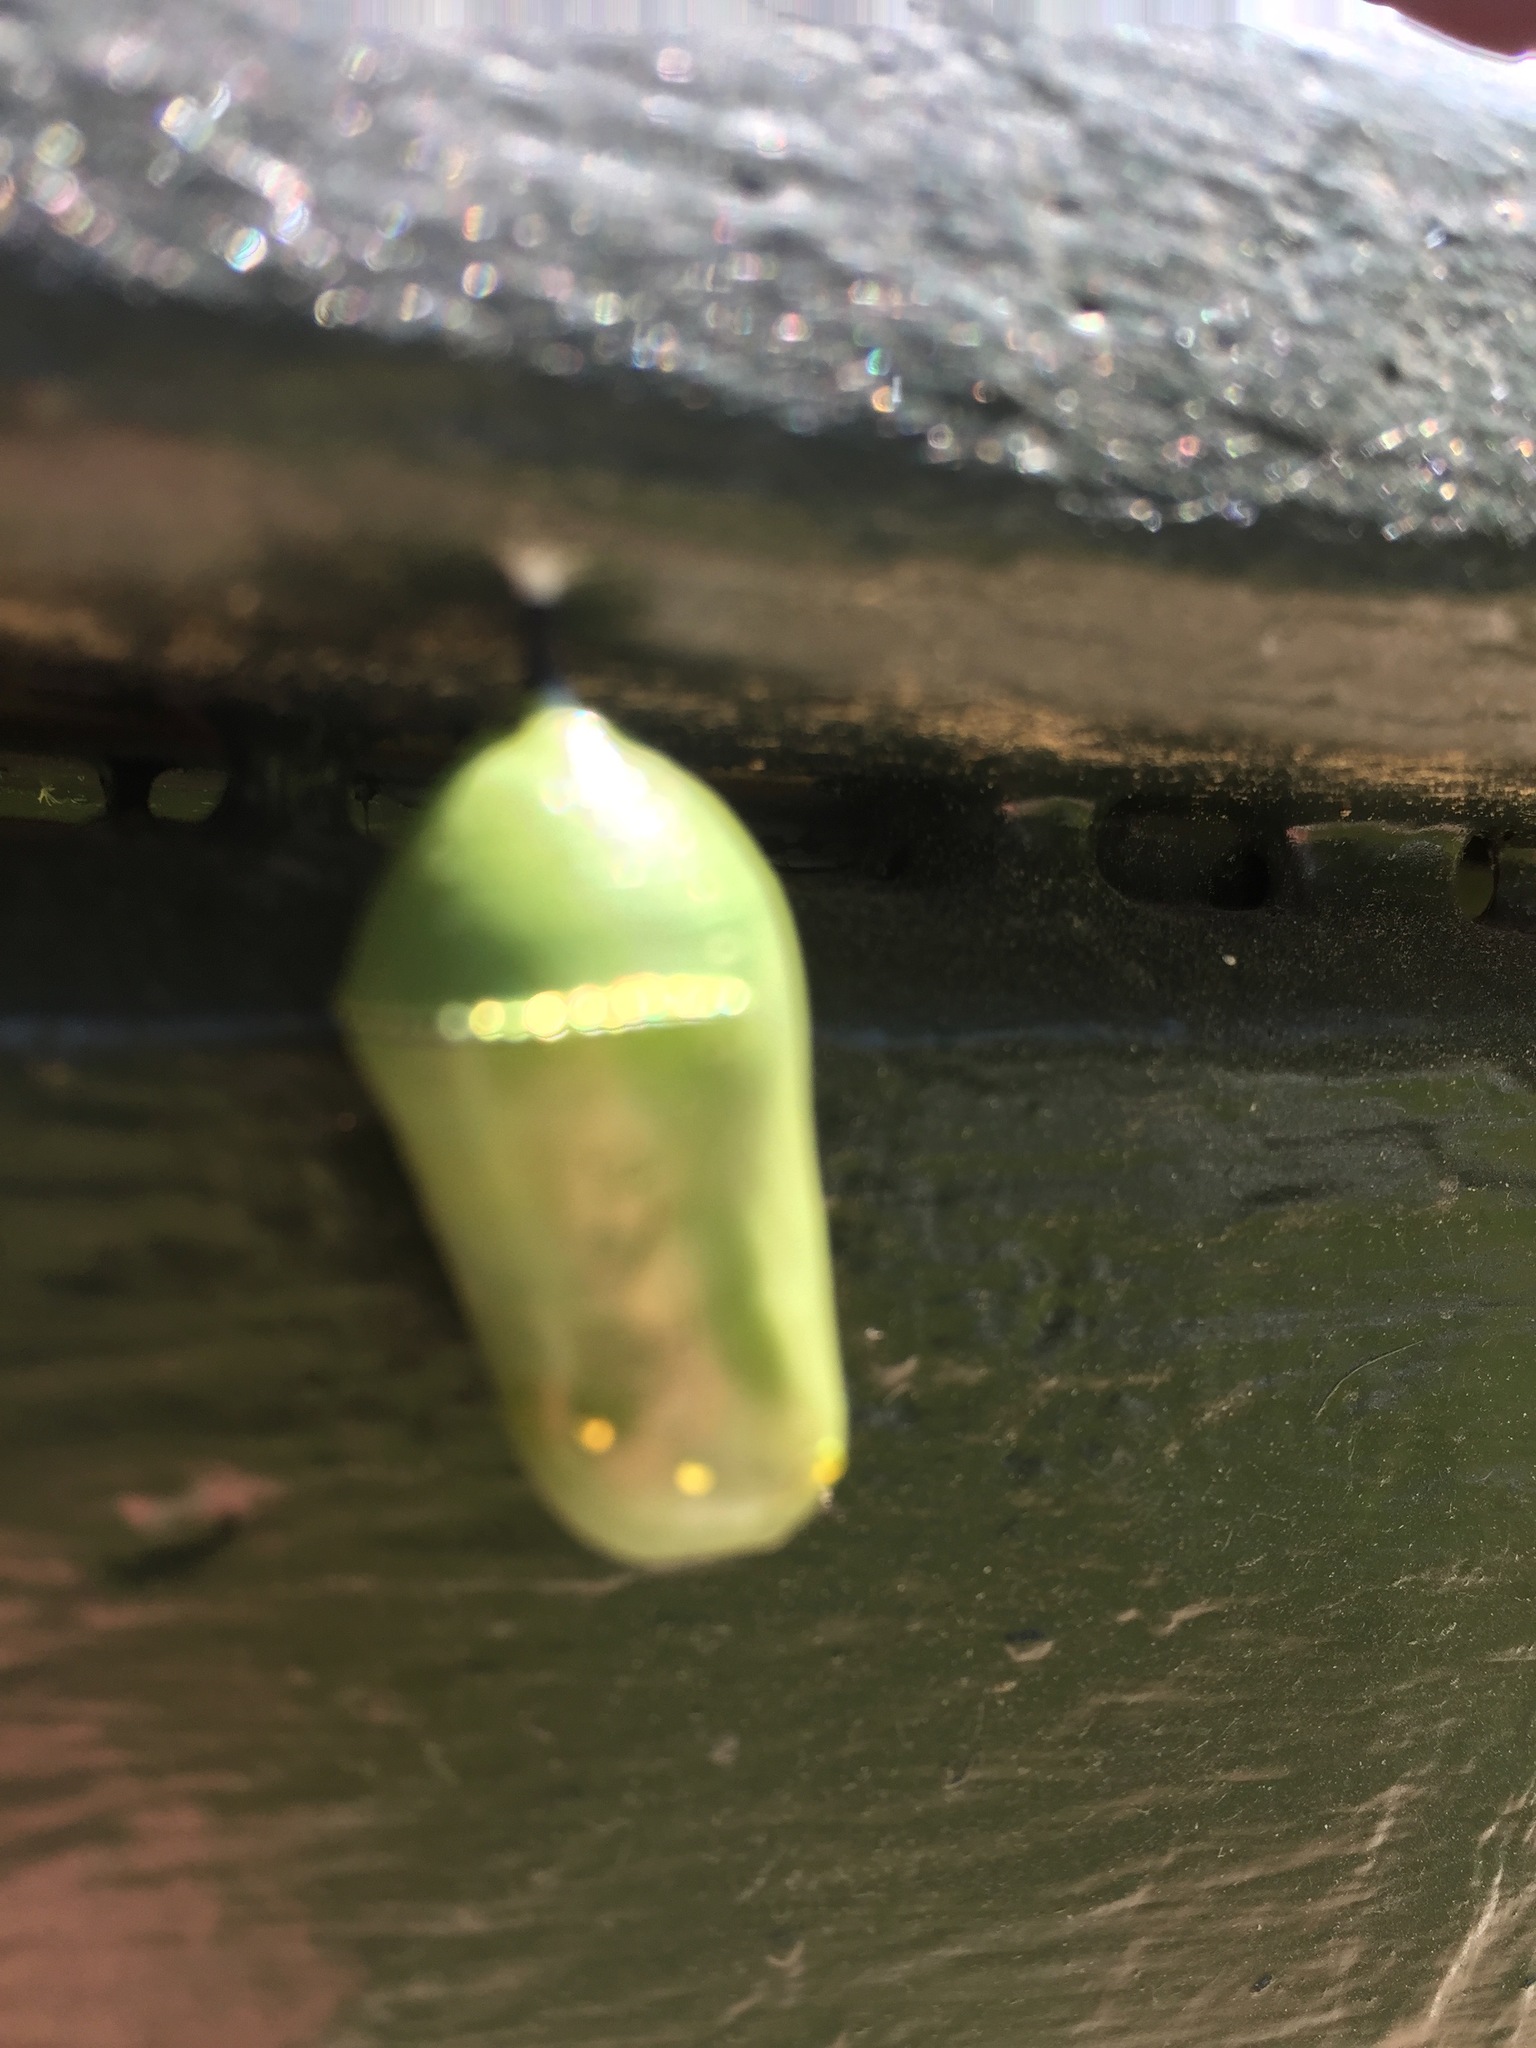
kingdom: Animalia
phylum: Arthropoda
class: Insecta
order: Lepidoptera
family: Nymphalidae
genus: Danaus
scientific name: Danaus plexippus
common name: Monarch
